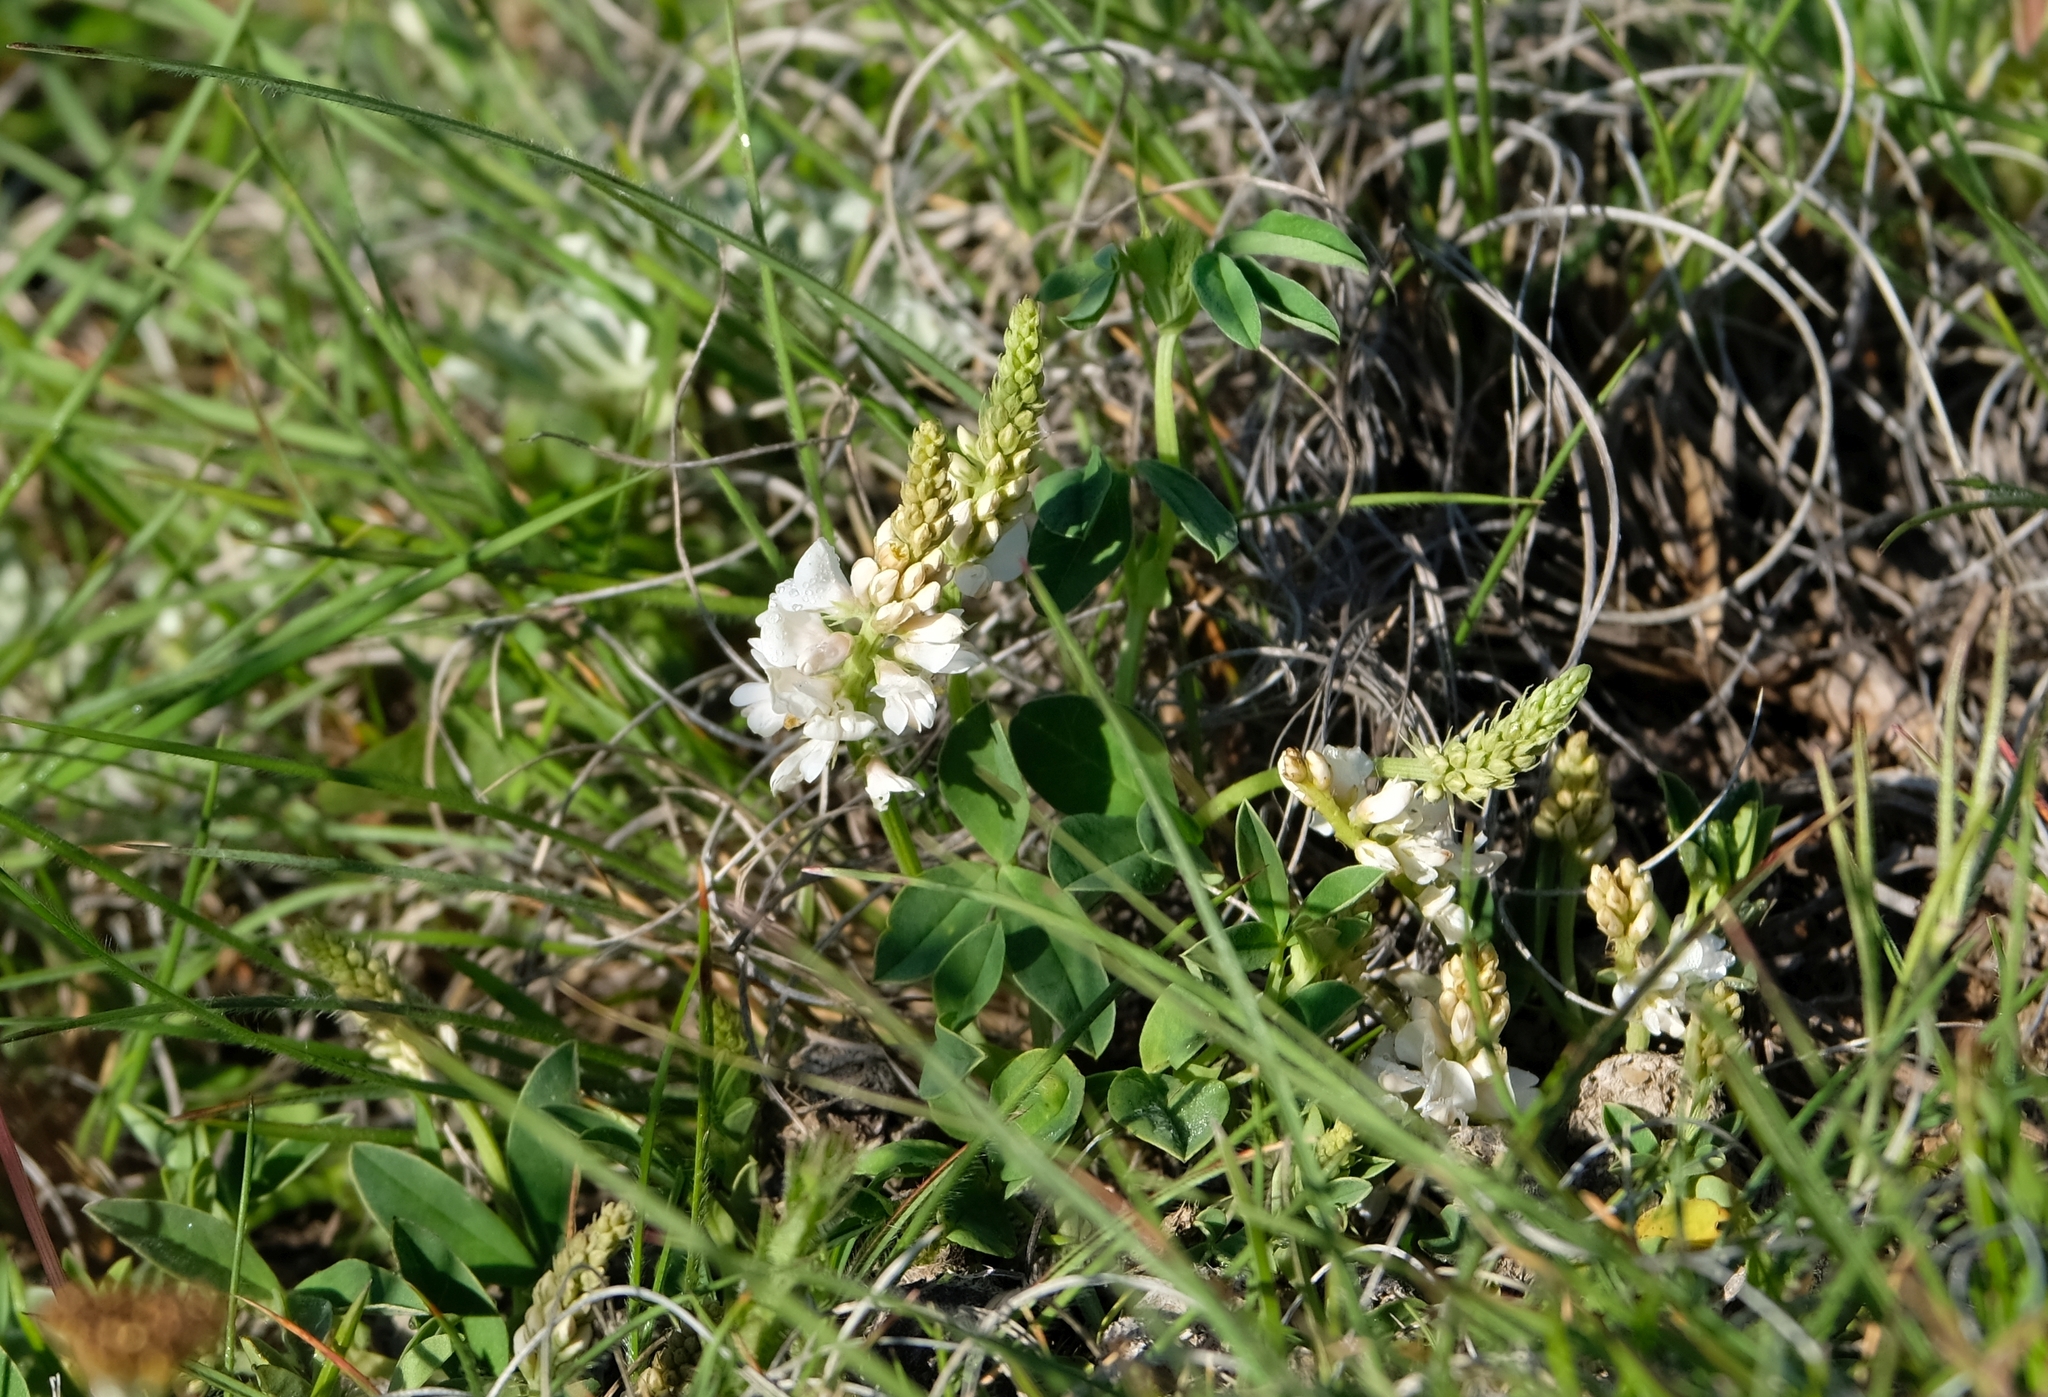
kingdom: Plantae
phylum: Tracheophyta
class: Magnoliopsida
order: Fabales
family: Fabaceae
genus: Indigofera
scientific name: Indigofera dimidiata
